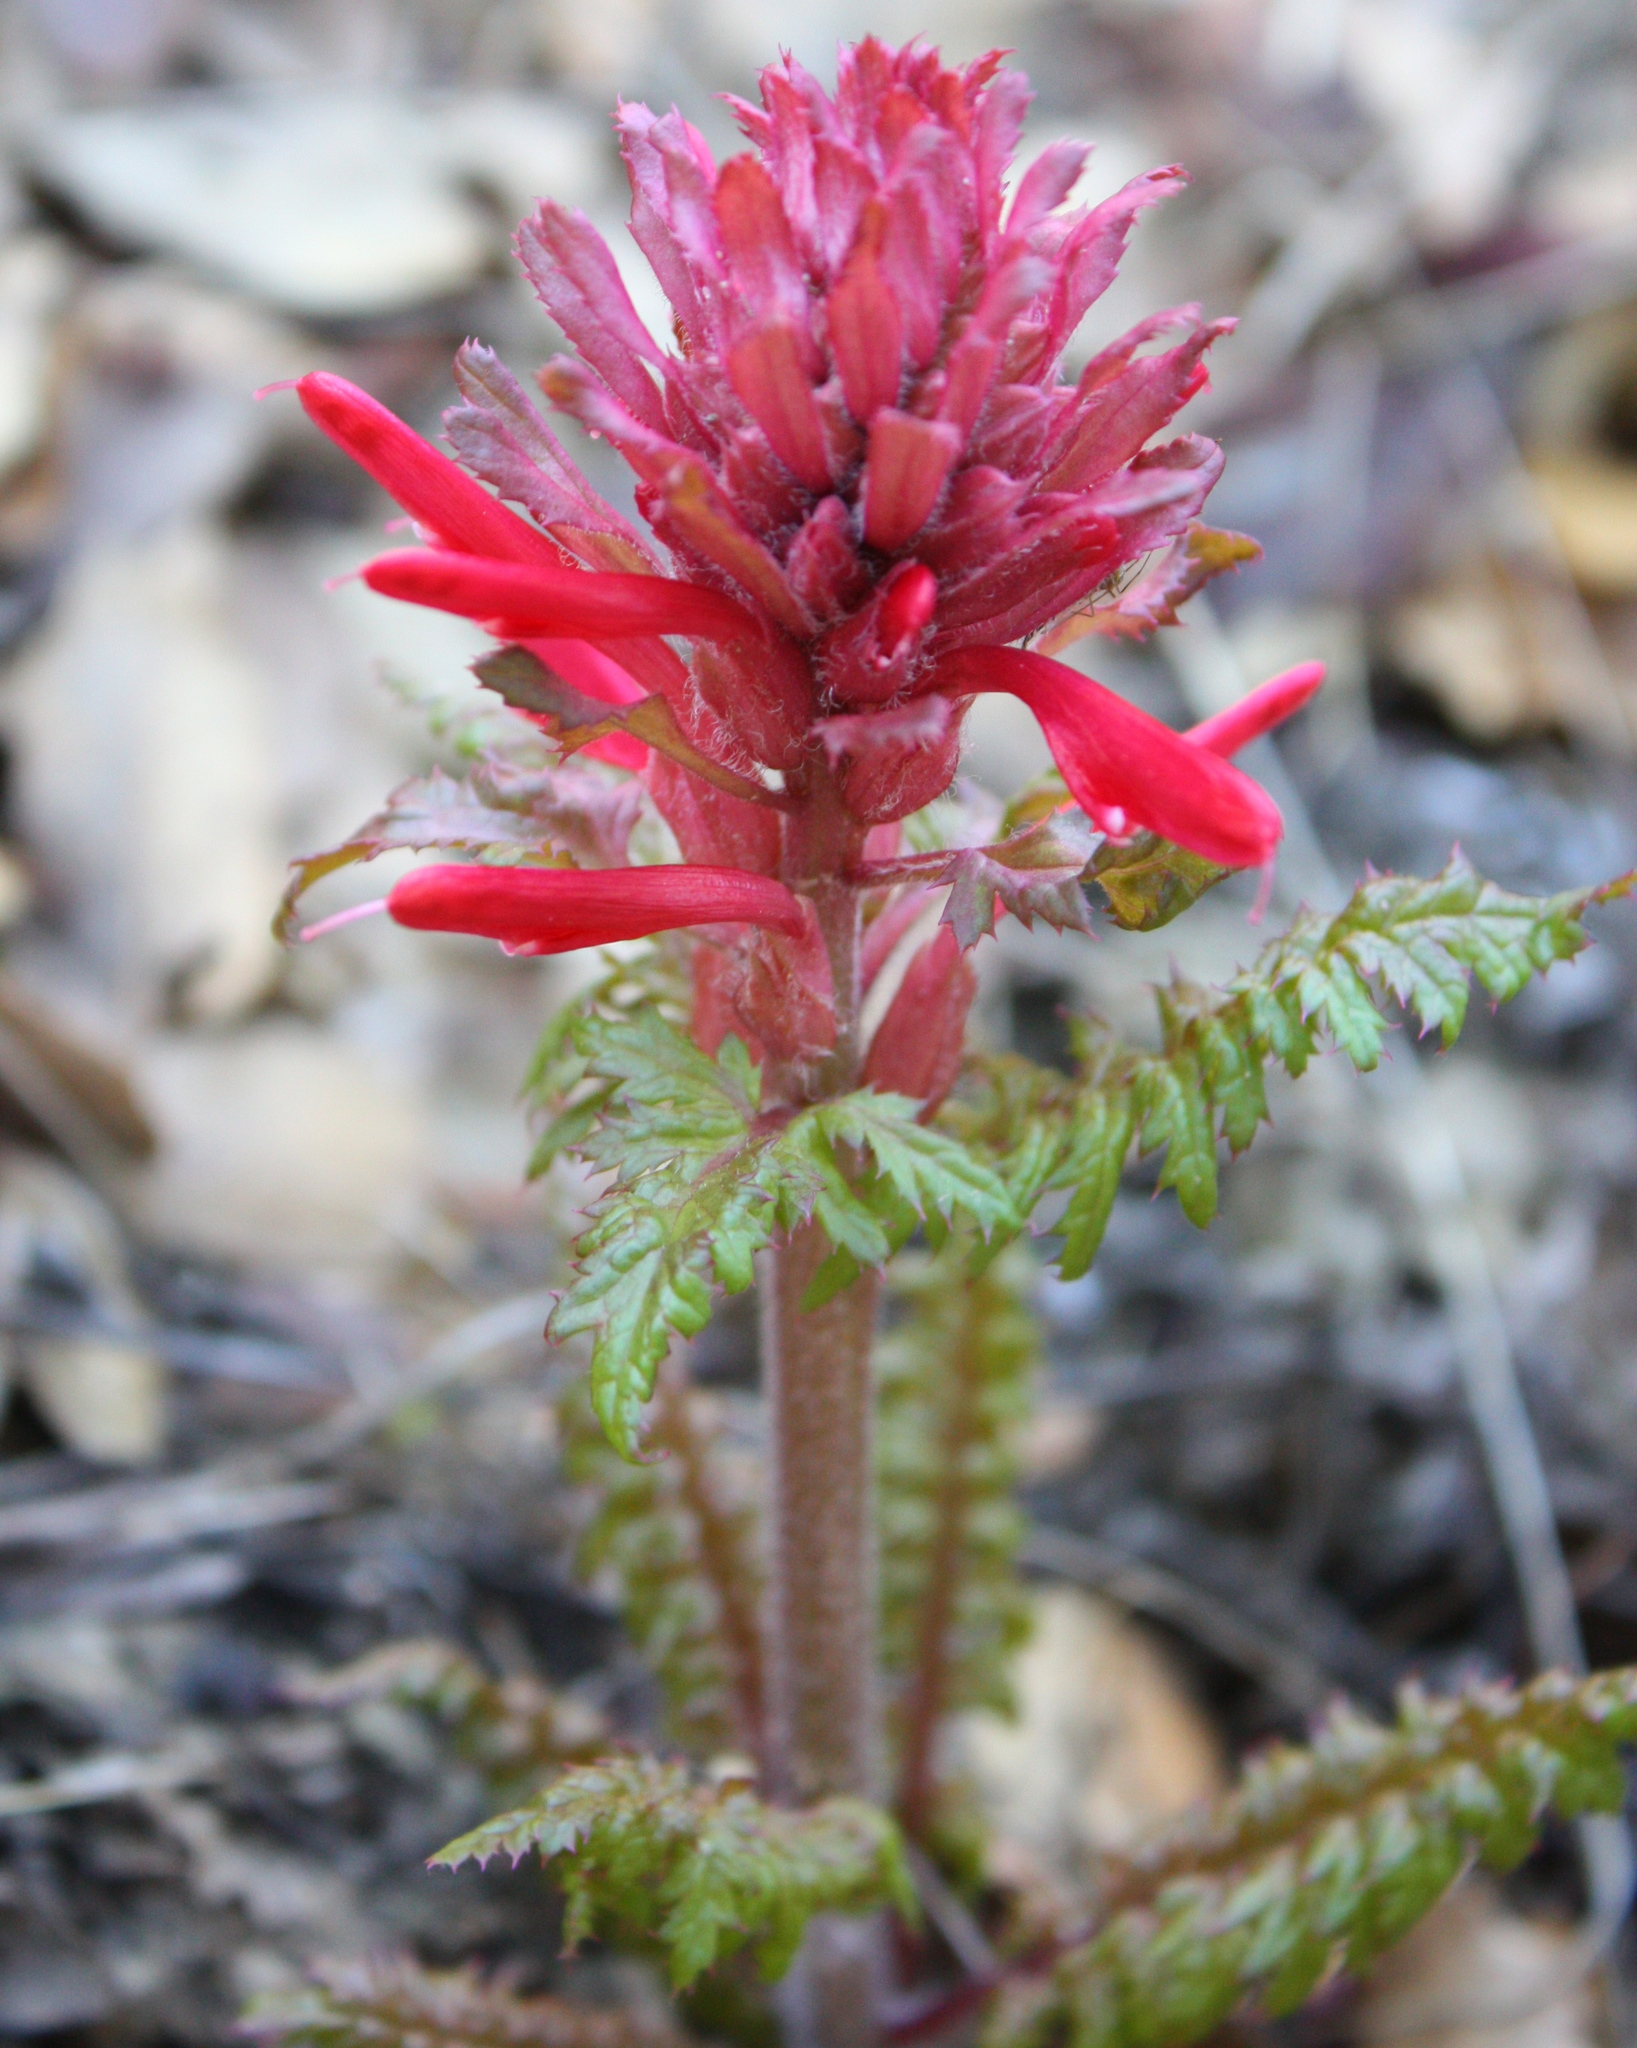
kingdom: Plantae
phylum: Tracheophyta
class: Magnoliopsida
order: Lamiales
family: Orobanchaceae
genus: Pedicularis
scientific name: Pedicularis densiflora
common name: Indian warrior
